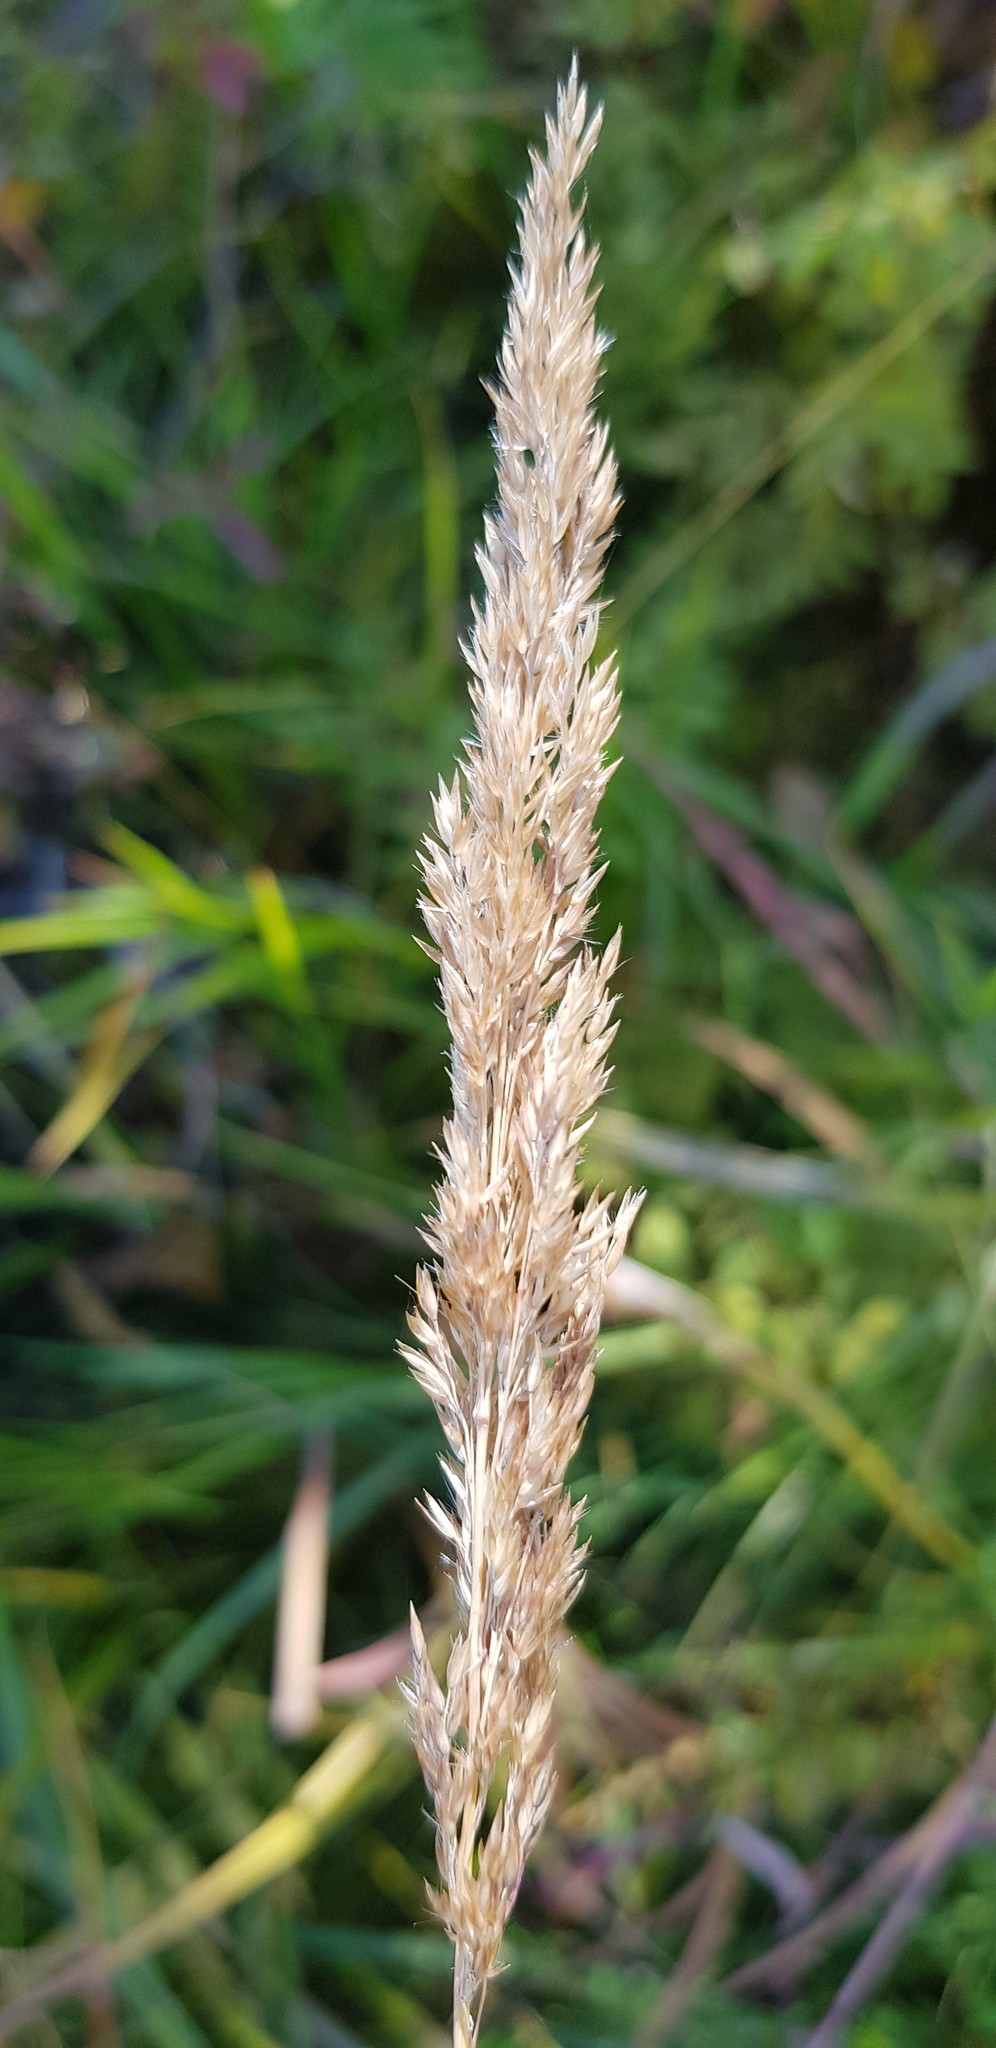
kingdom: Plantae
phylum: Tracheophyta
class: Liliopsida
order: Poales
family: Poaceae
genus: Calamagrostis
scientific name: Calamagrostis arundinacea
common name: Metskastik
